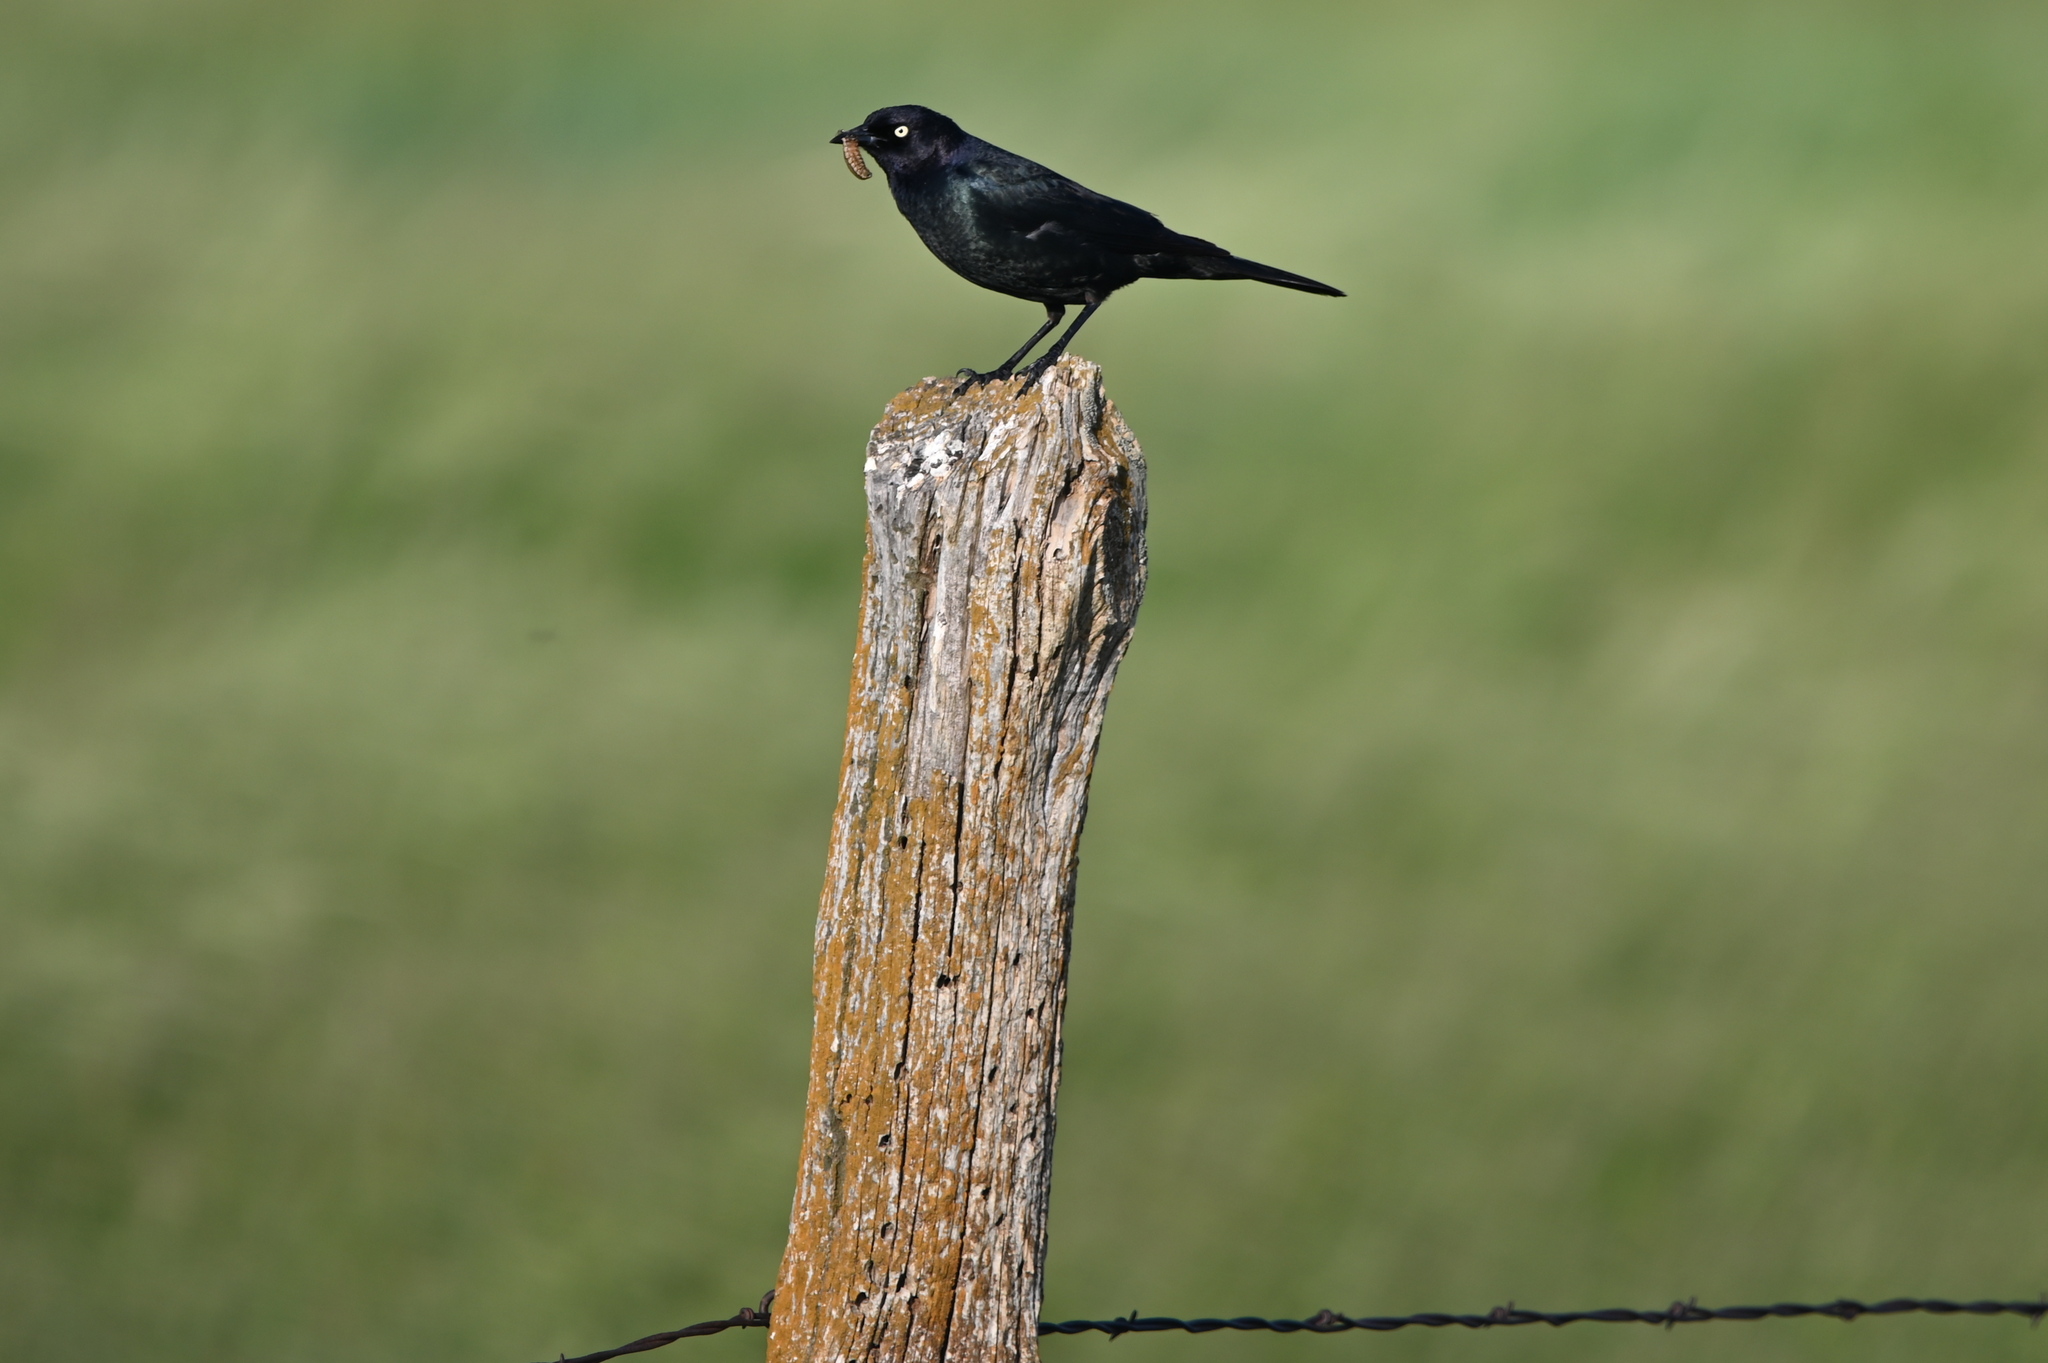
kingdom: Animalia
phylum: Chordata
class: Aves
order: Passeriformes
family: Icteridae
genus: Euphagus
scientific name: Euphagus cyanocephalus
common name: Brewer's blackbird
